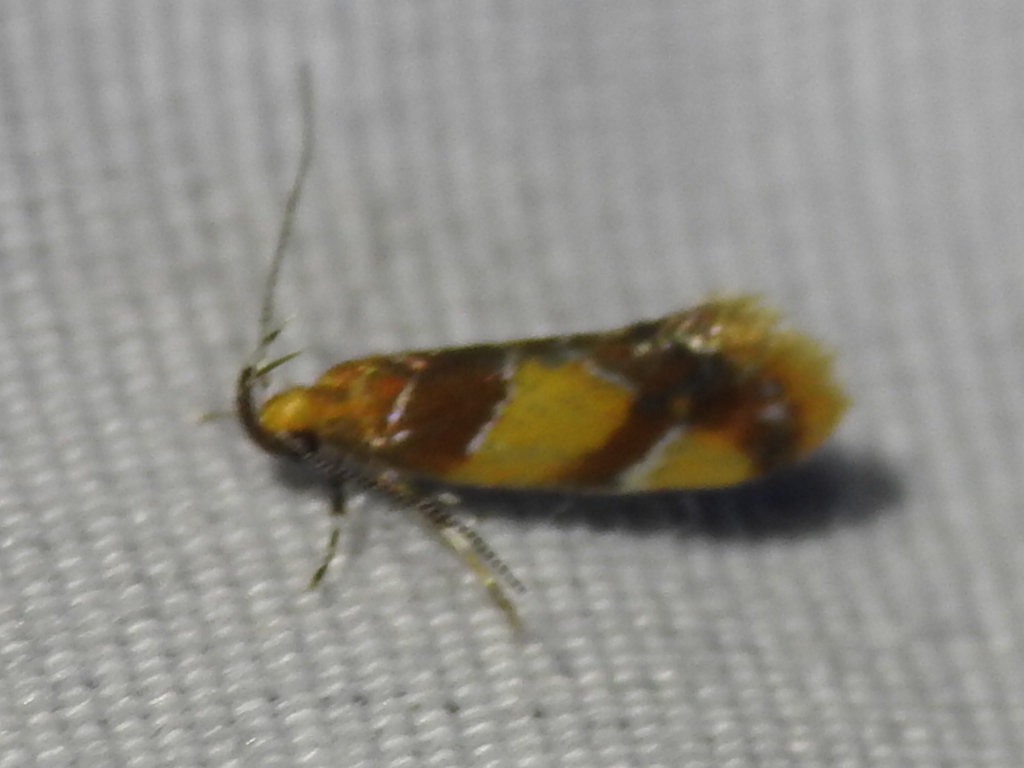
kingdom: Animalia
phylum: Arthropoda
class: Insecta
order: Lepidoptera
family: Oecophoridae
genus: Callima
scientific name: Callima argenticinctella
